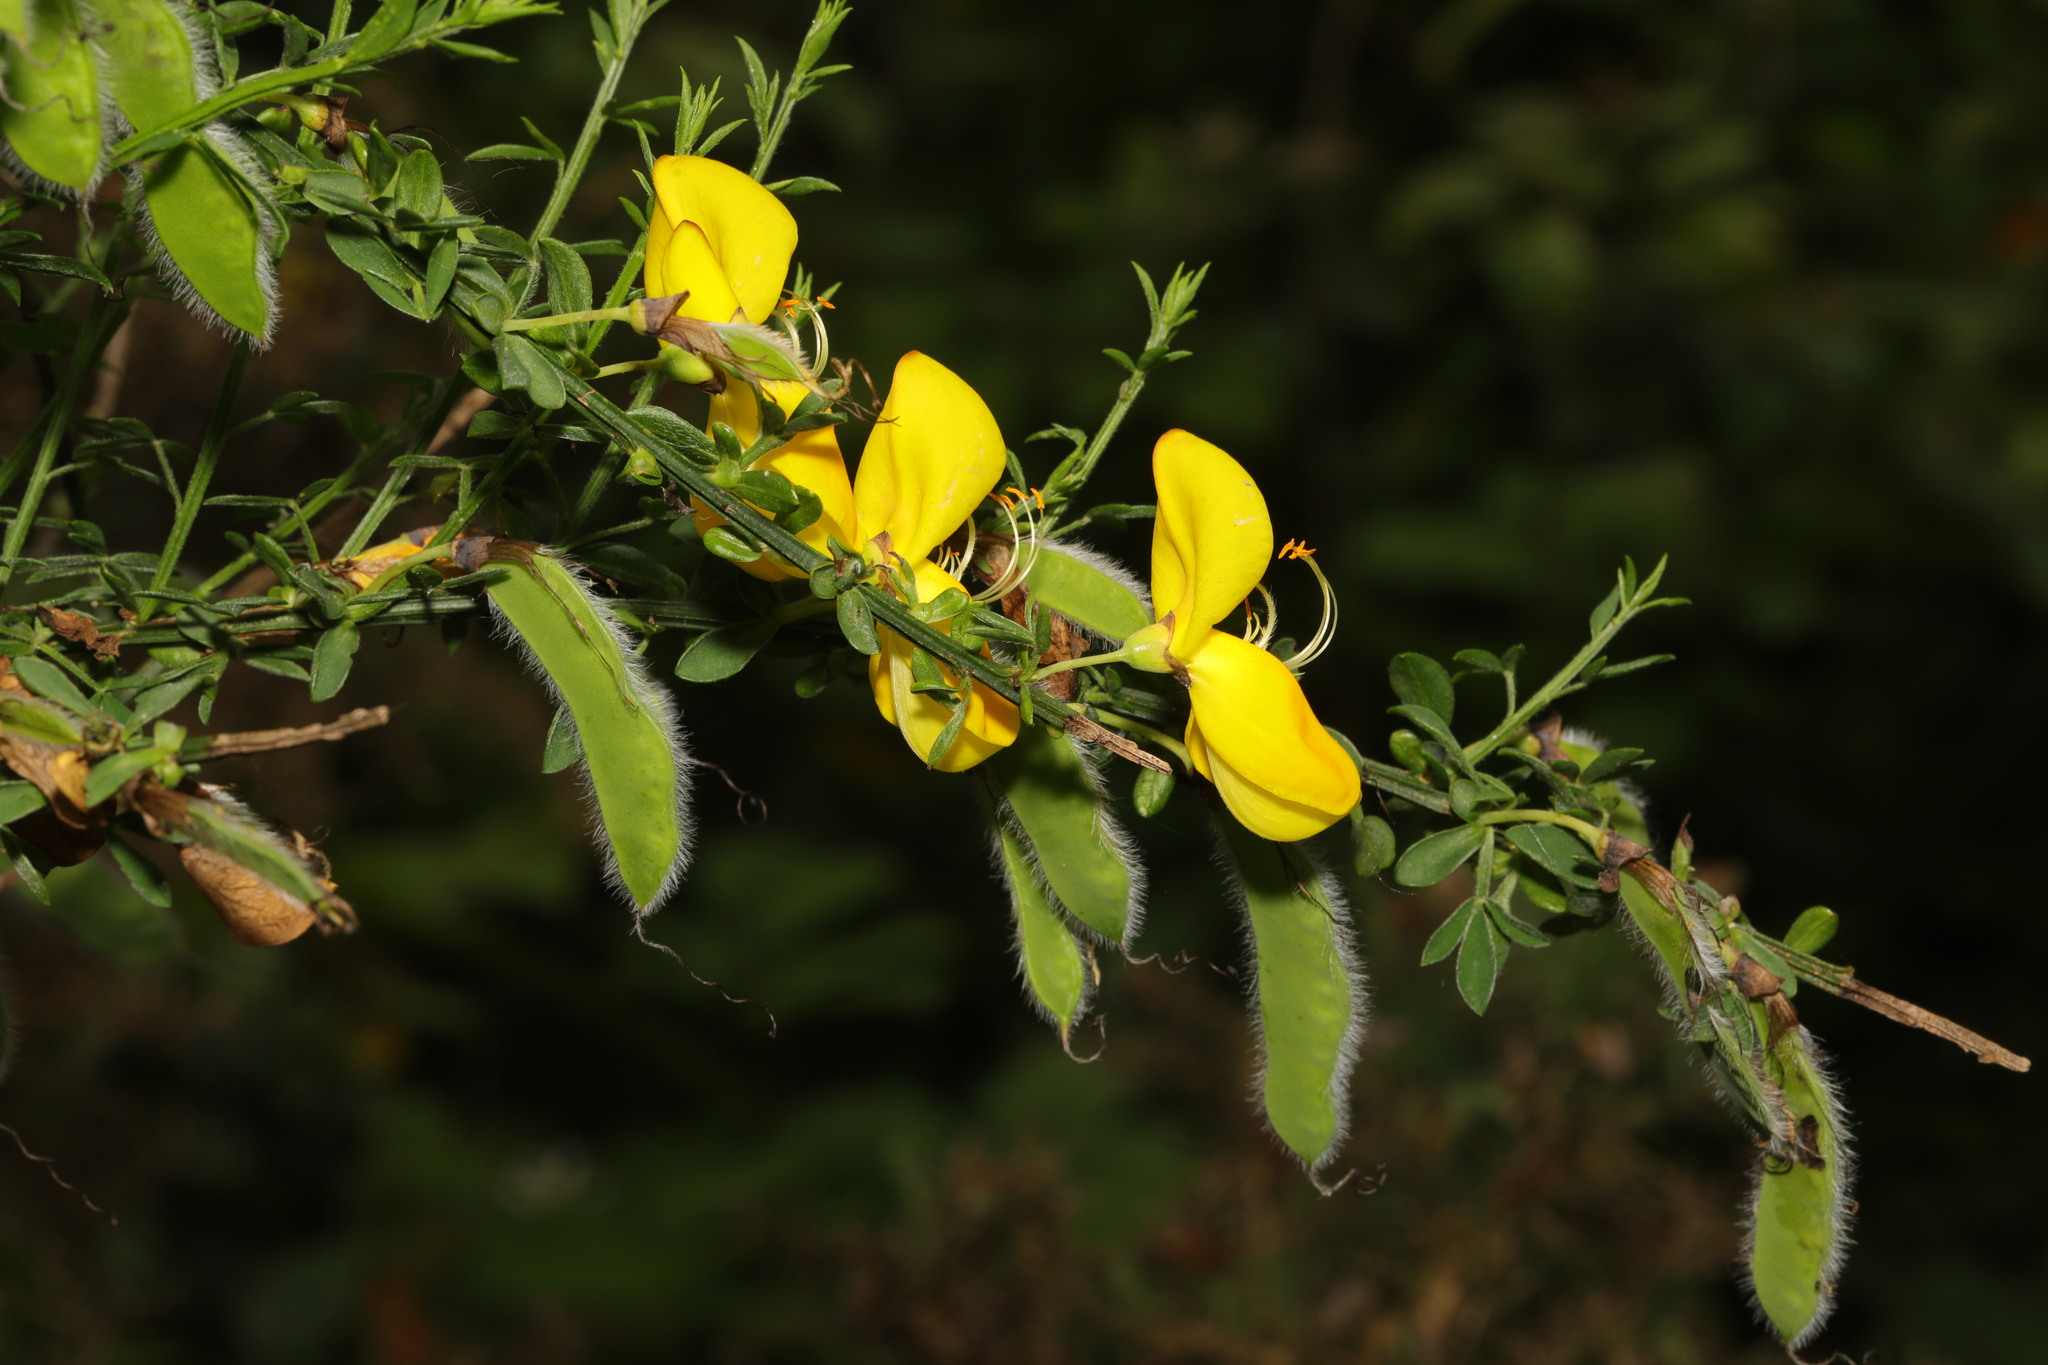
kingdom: Plantae
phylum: Tracheophyta
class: Magnoliopsida
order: Fabales
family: Fabaceae
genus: Cytisus
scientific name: Cytisus scoparius
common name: Scotch broom
